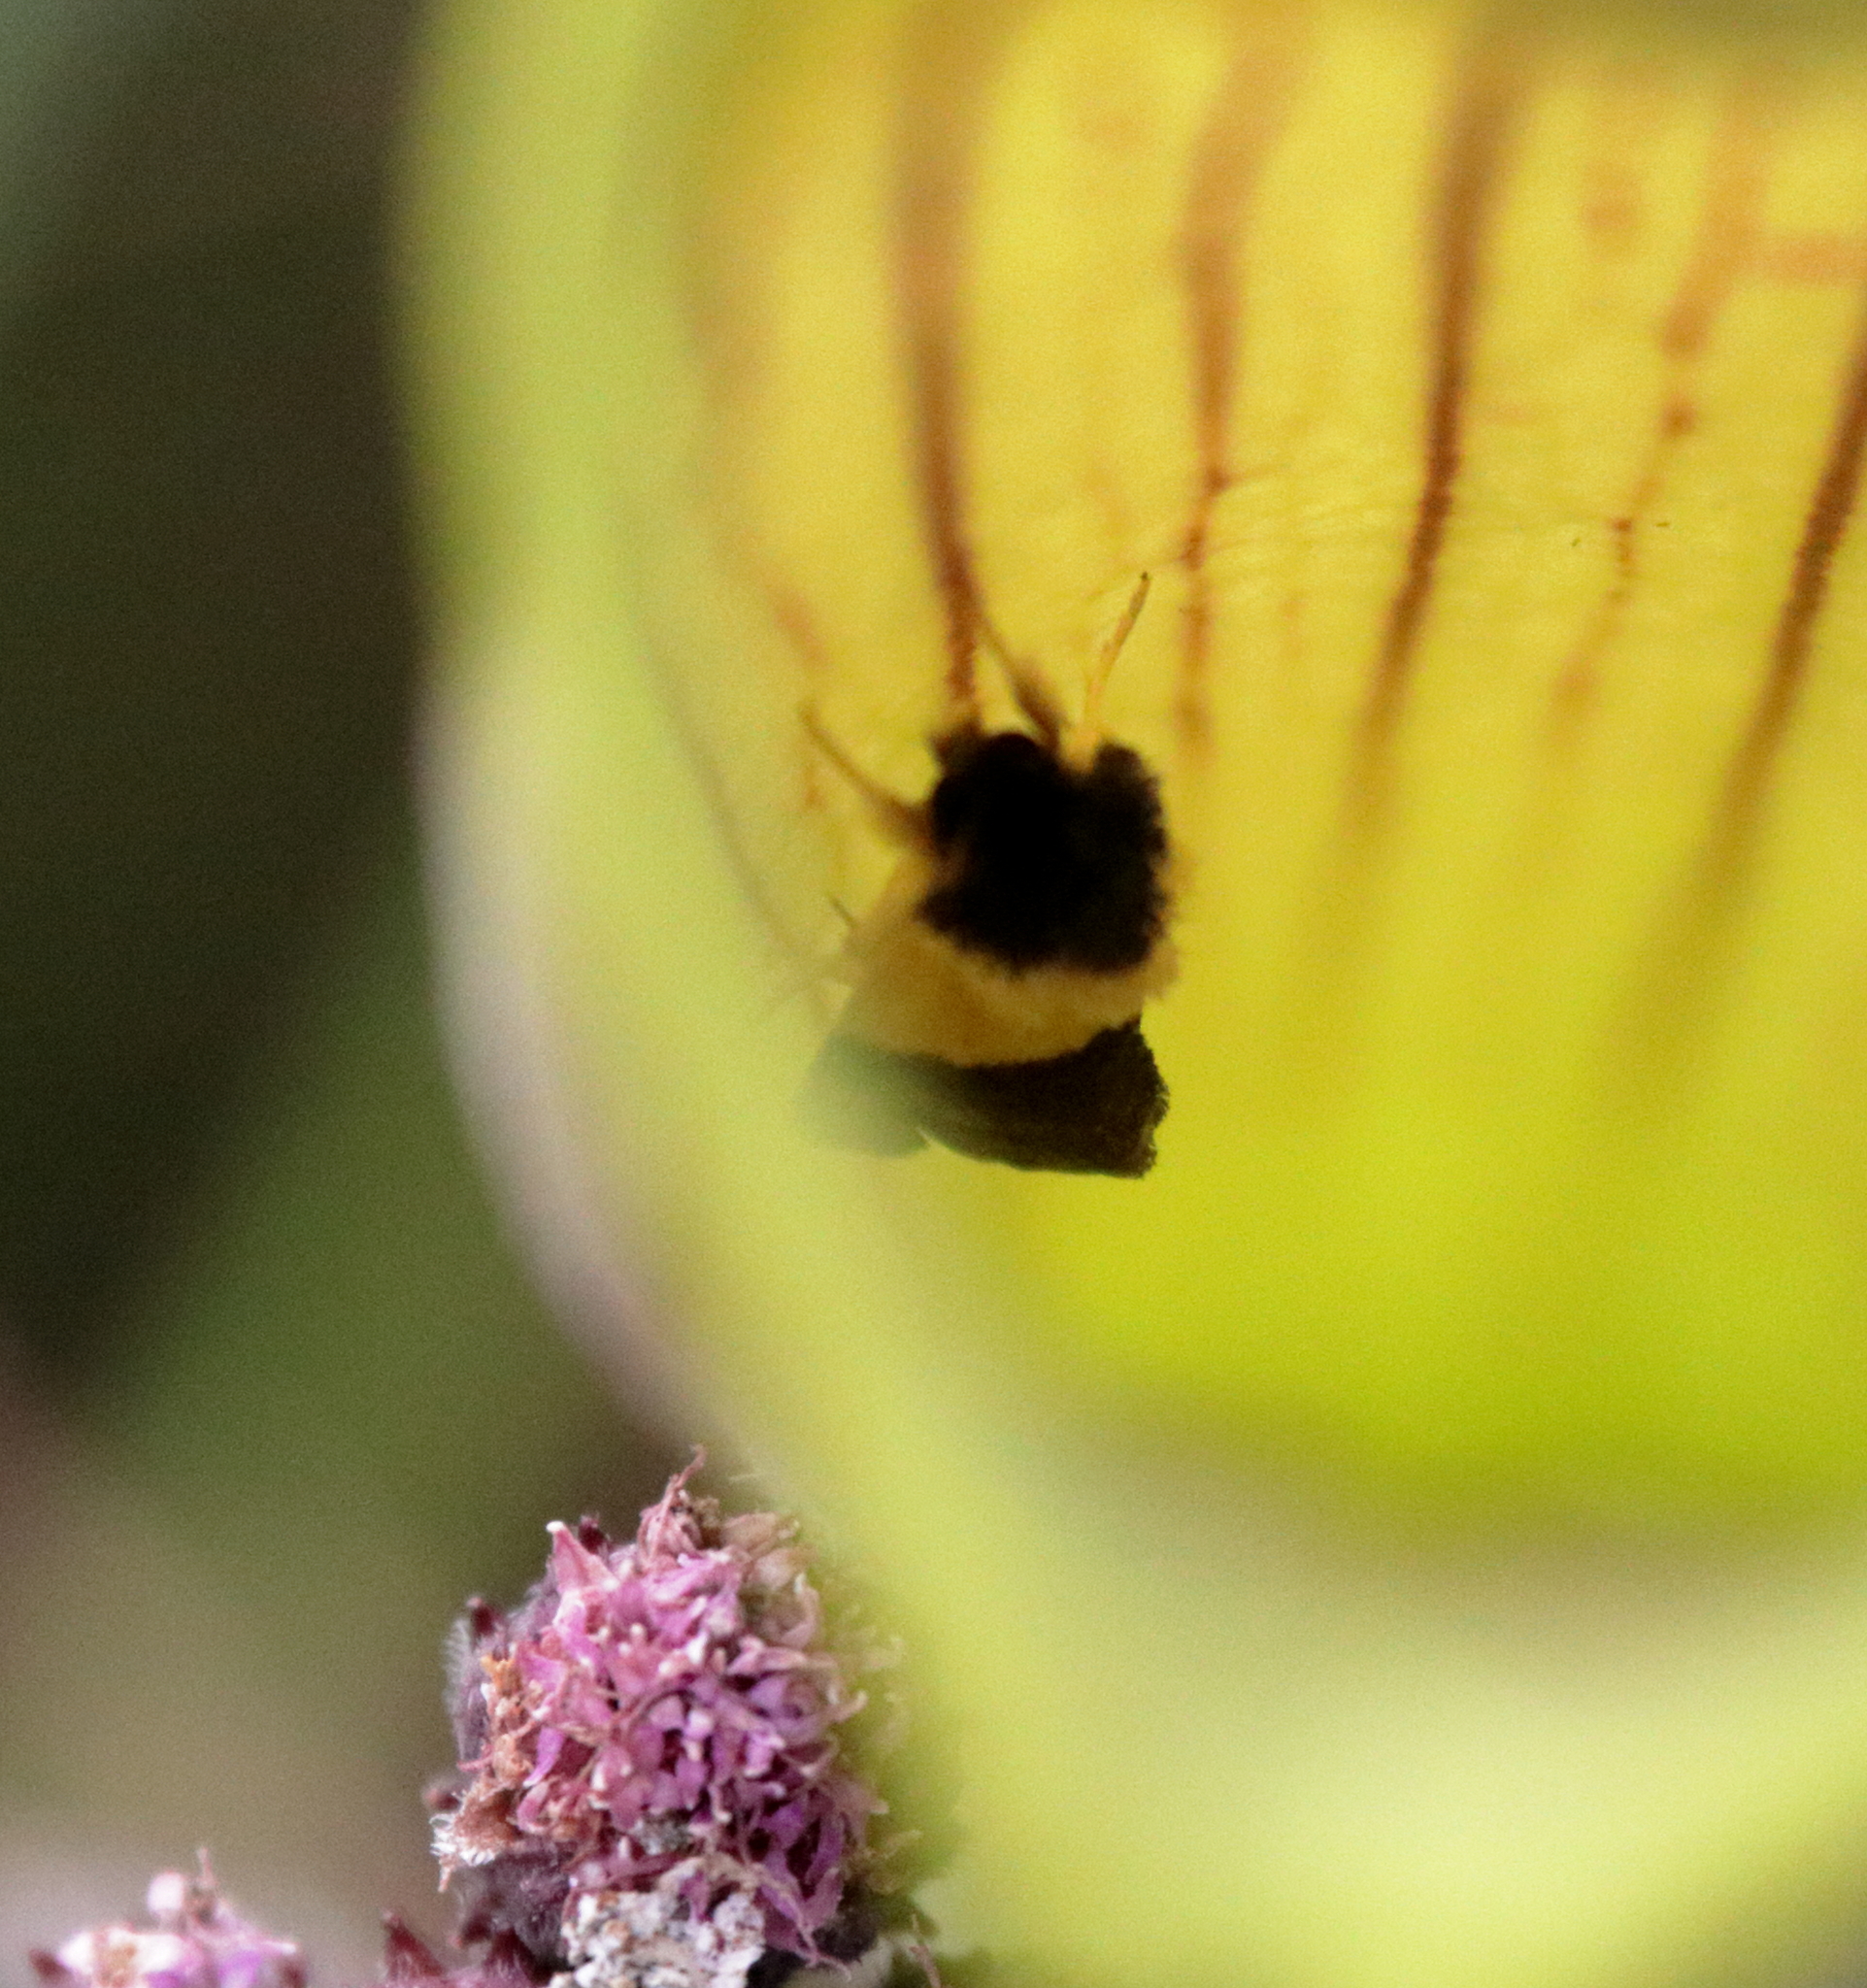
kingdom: Animalia
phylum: Arthropoda
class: Insecta
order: Lepidoptera
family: Noctuidae
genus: Exyra
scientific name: Exyra semicrocea
